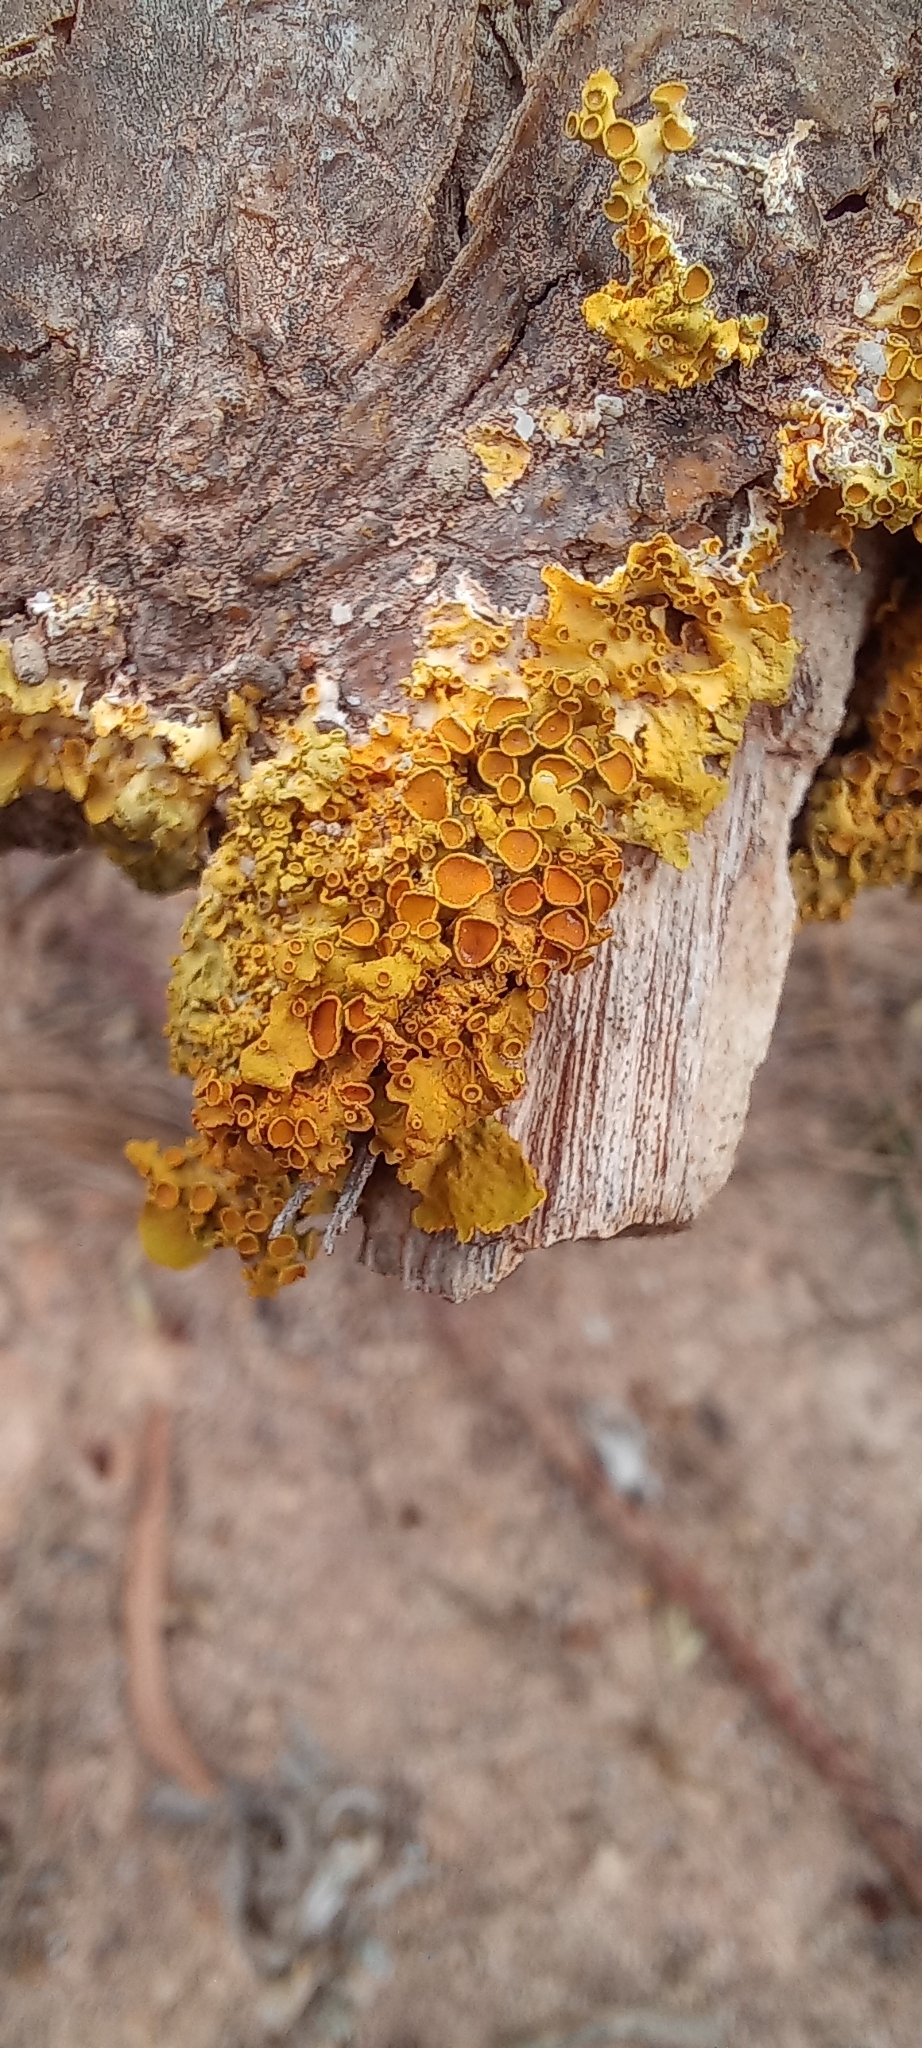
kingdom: Fungi
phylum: Ascomycota
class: Lecanoromycetes
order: Teloschistales
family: Teloschistaceae
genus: Xanthoria
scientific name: Xanthoria parietina
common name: Common orange lichen
